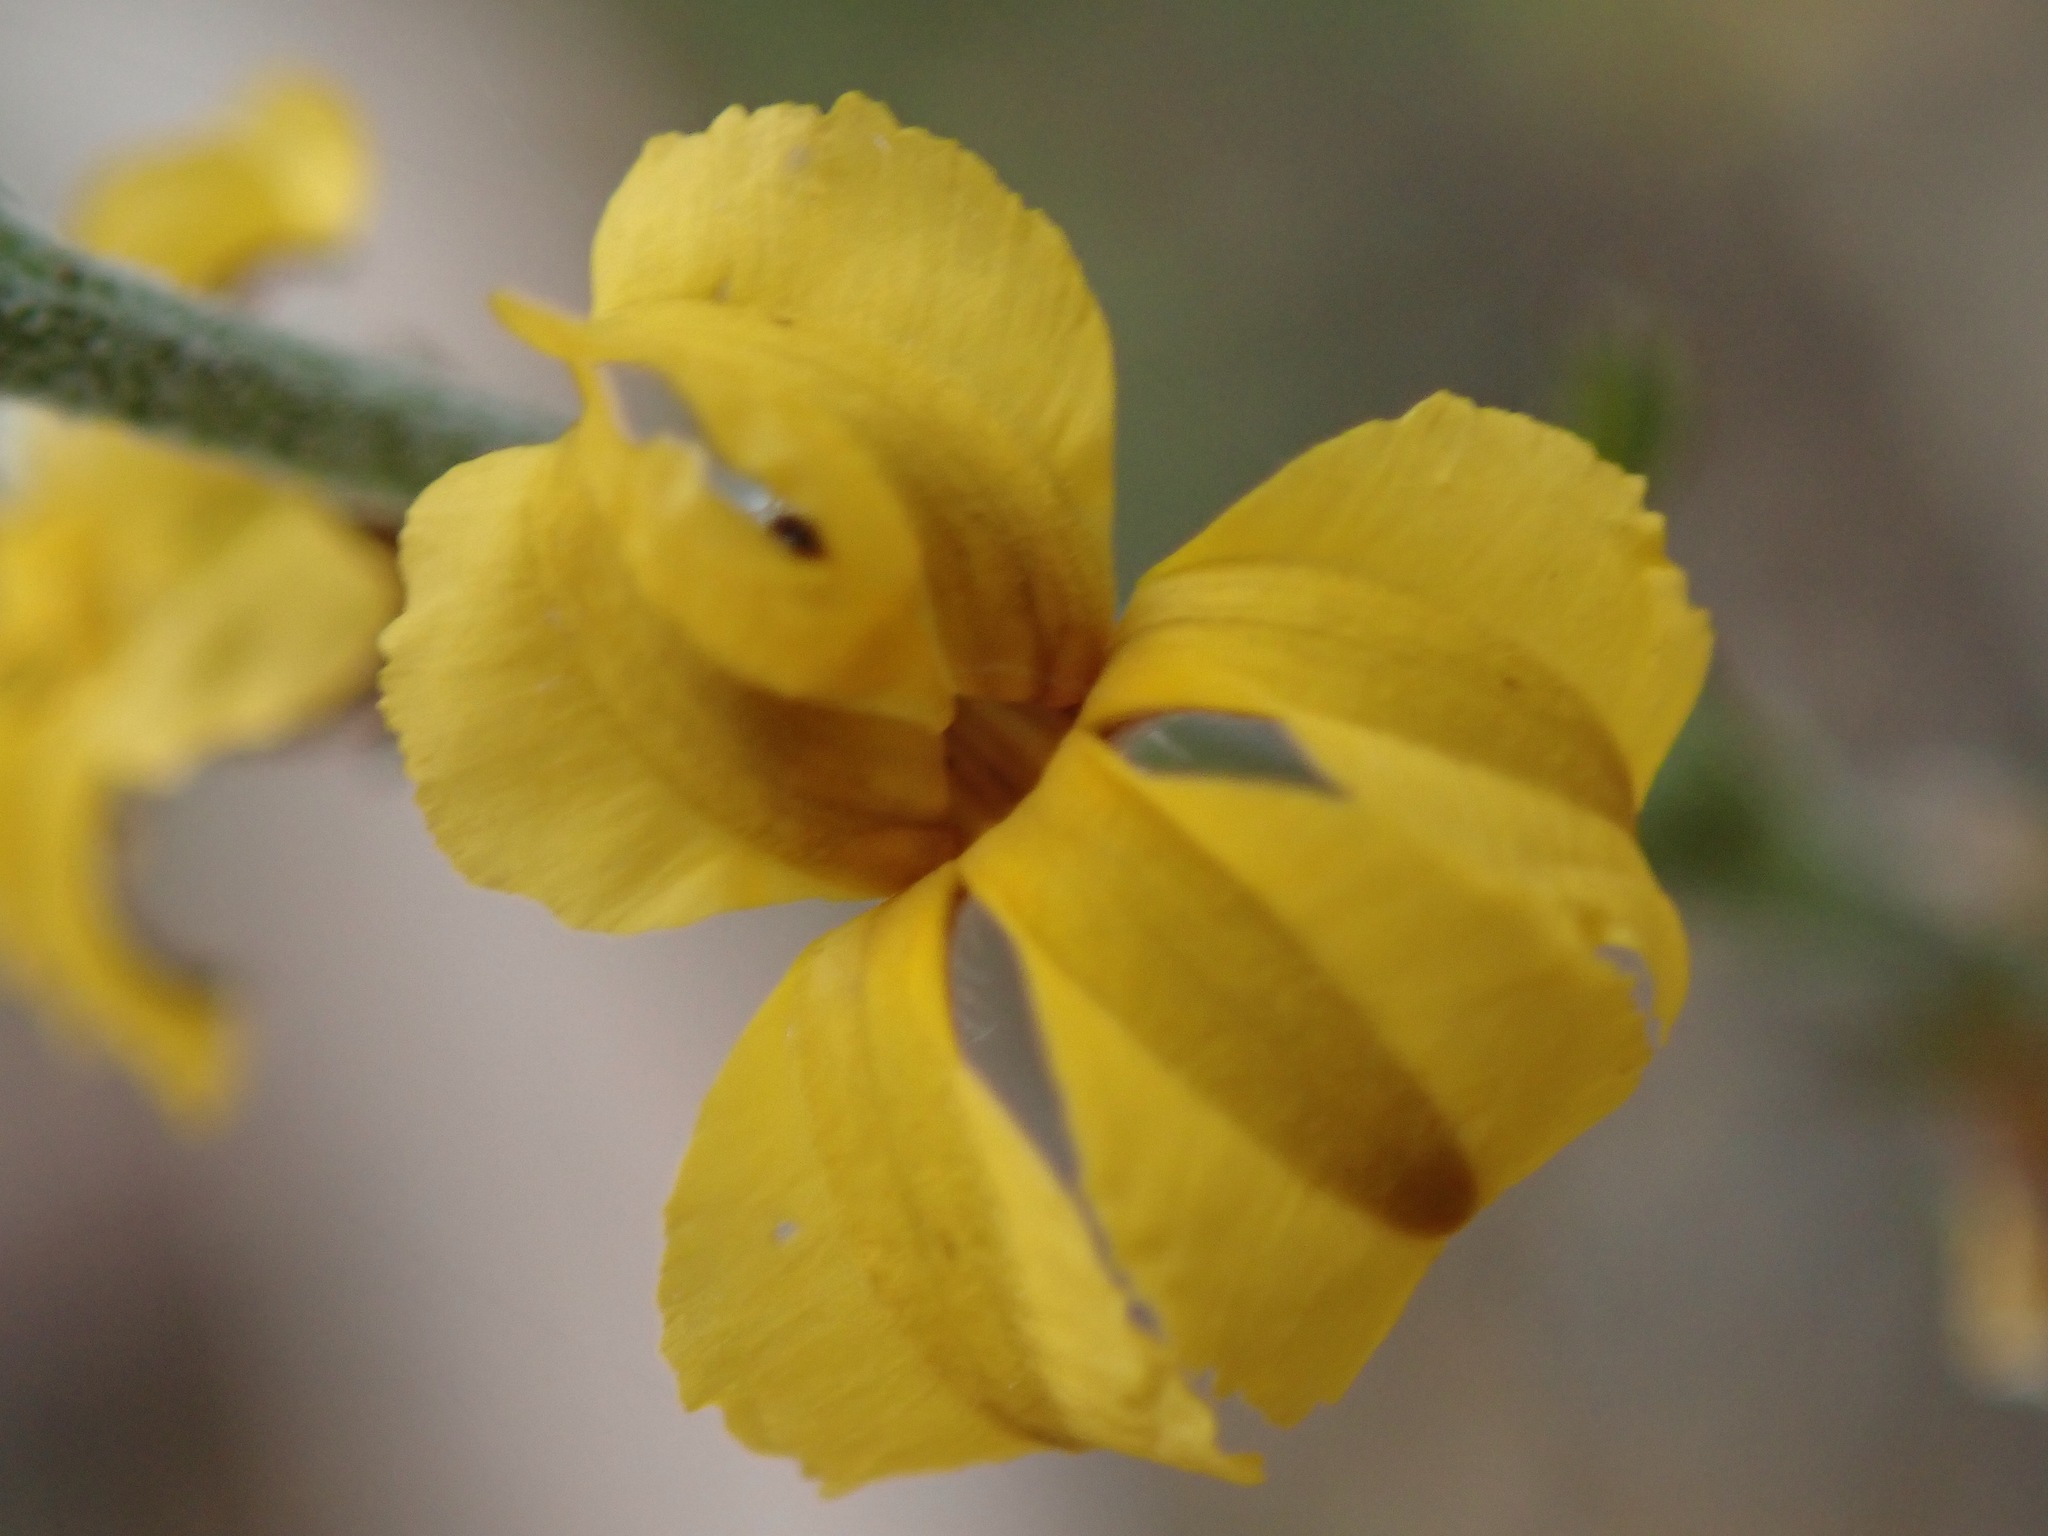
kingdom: Plantae
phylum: Tracheophyta
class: Magnoliopsida
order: Asterales
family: Goodeniaceae
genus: Goodenia
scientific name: Goodenia bellidifolia
